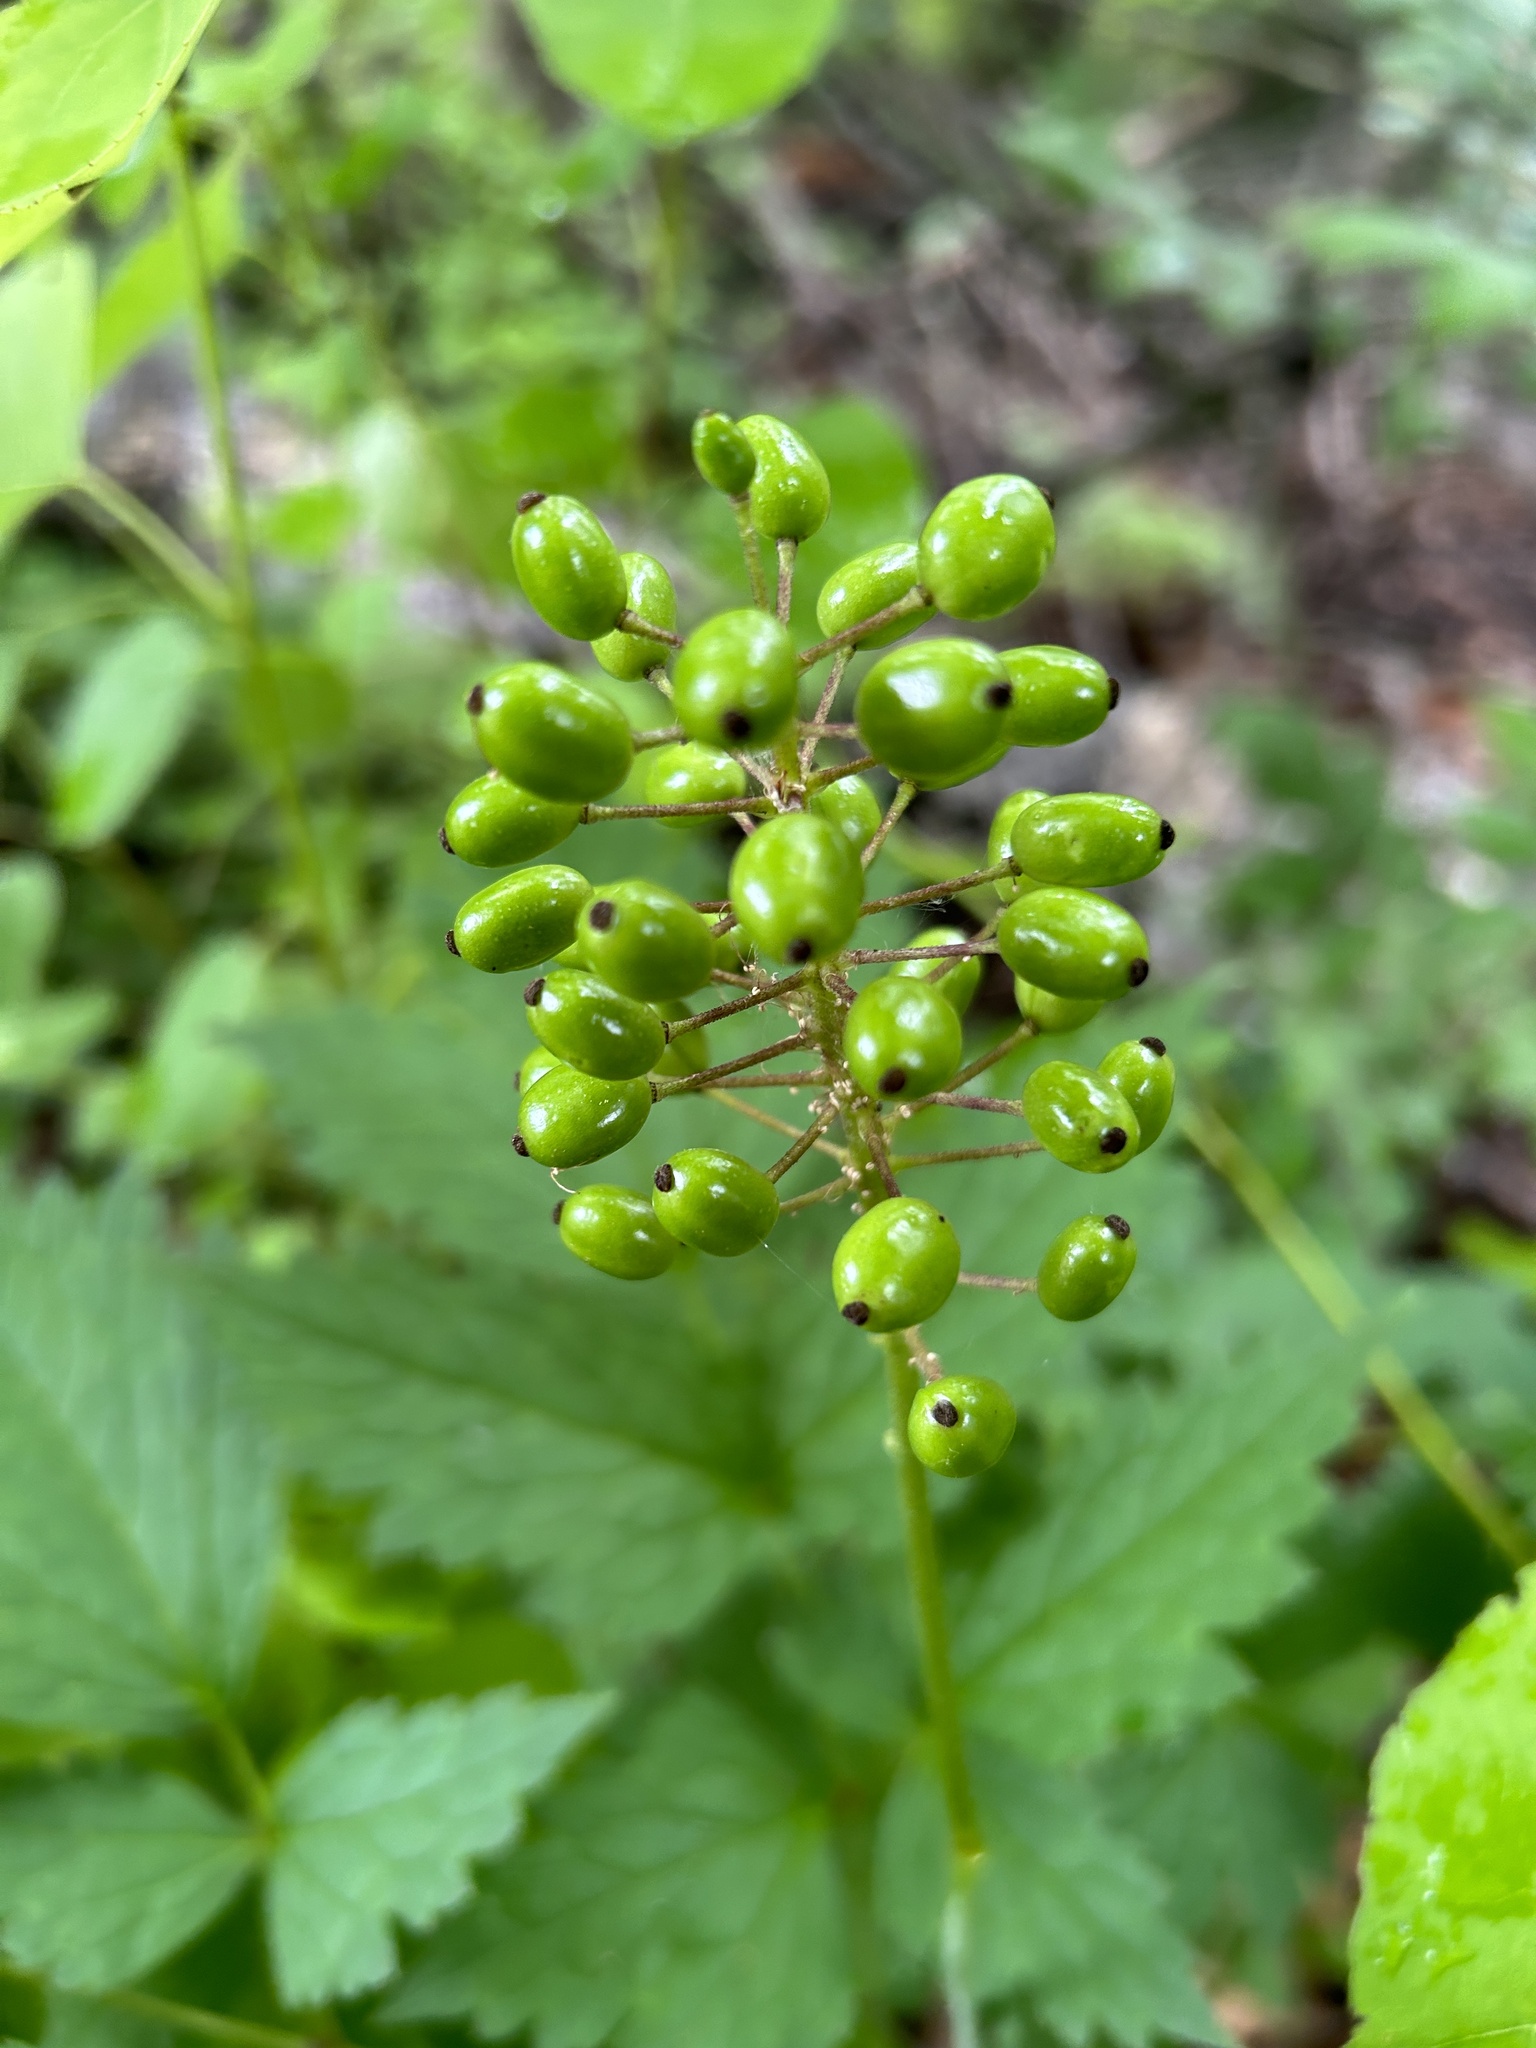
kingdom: Plantae
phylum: Tracheophyta
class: Magnoliopsida
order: Ranunculales
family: Ranunculaceae
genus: Actaea
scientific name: Actaea rubra
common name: Red baneberry
